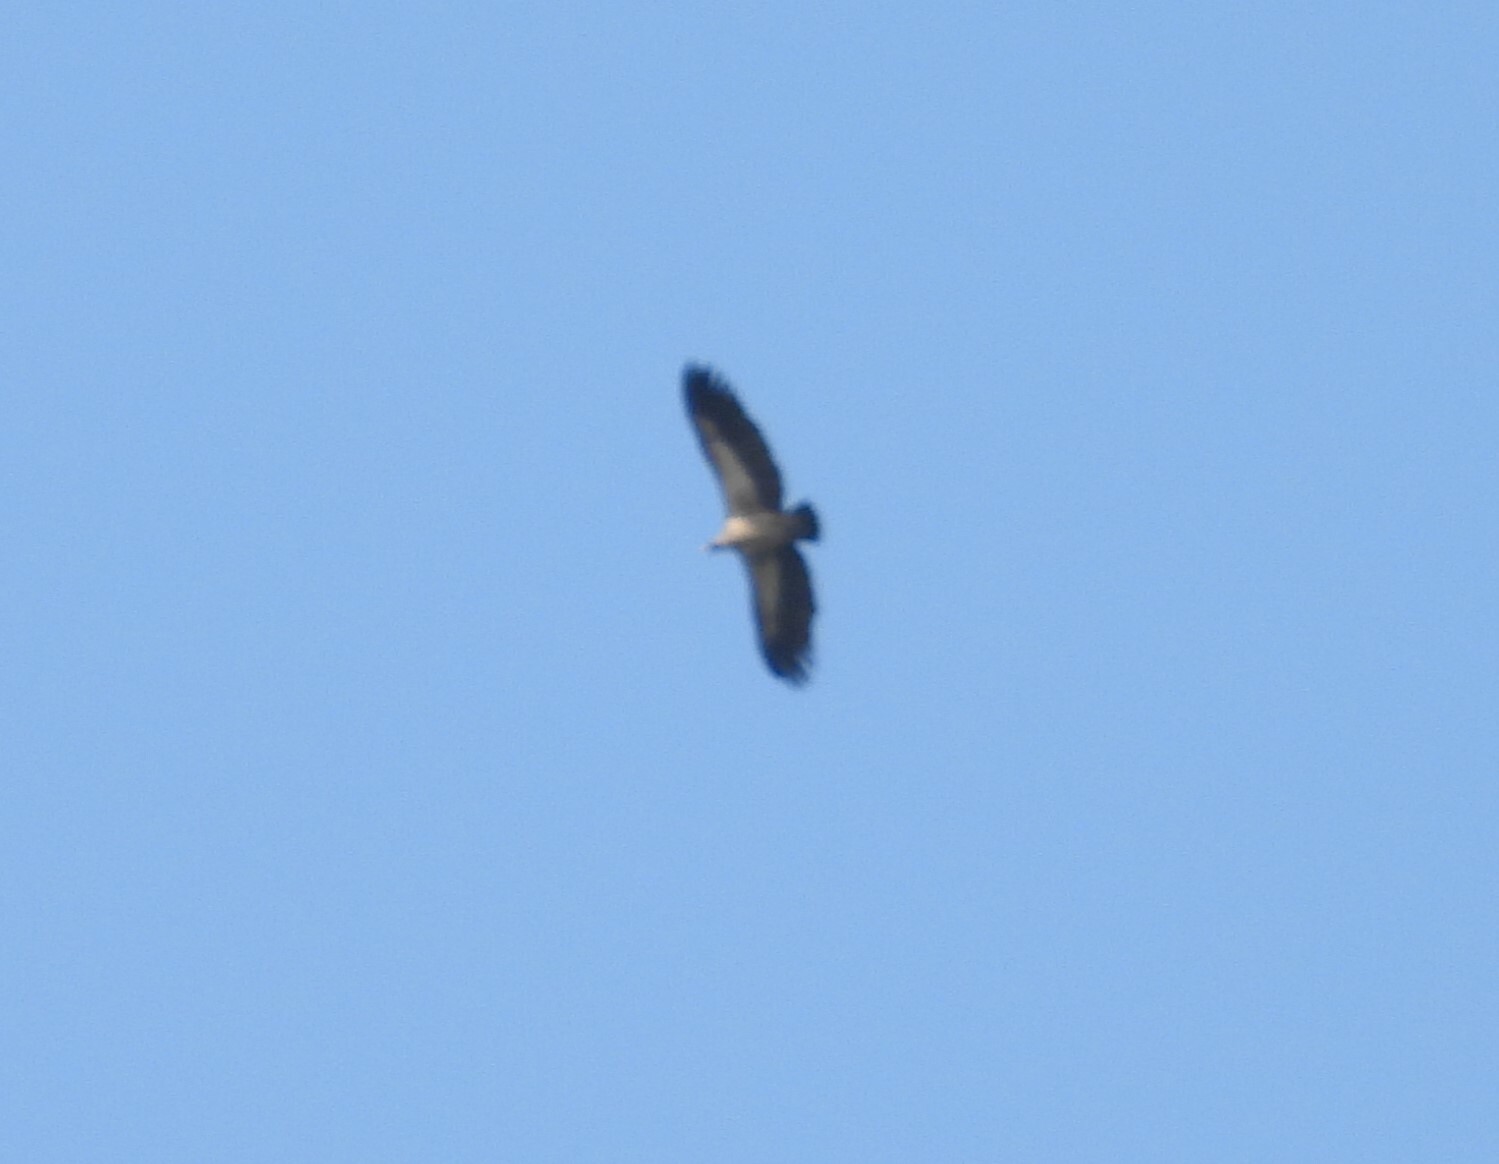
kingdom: Animalia
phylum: Chordata
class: Aves
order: Accipitriformes
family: Accipitridae
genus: Gyps
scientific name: Gyps africanus
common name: White-backed vulture
